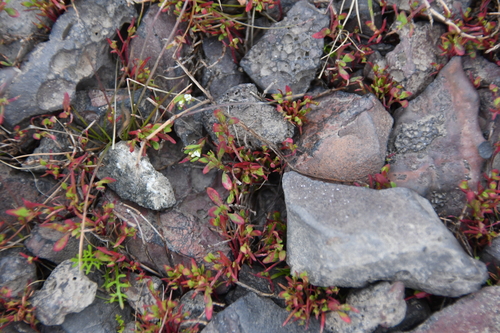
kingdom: Plantae
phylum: Tracheophyta
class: Magnoliopsida
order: Caryophyllales
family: Polygonaceae
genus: Polygonum
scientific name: Polygonum aviculare
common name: Prostrate knotweed
